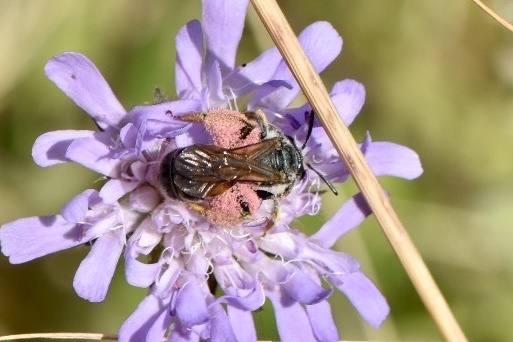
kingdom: Animalia
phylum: Arthropoda
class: Insecta
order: Hymenoptera
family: Andrenidae
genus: Andrena
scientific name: Andrena hattorfiana
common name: Large scabious mining bee
